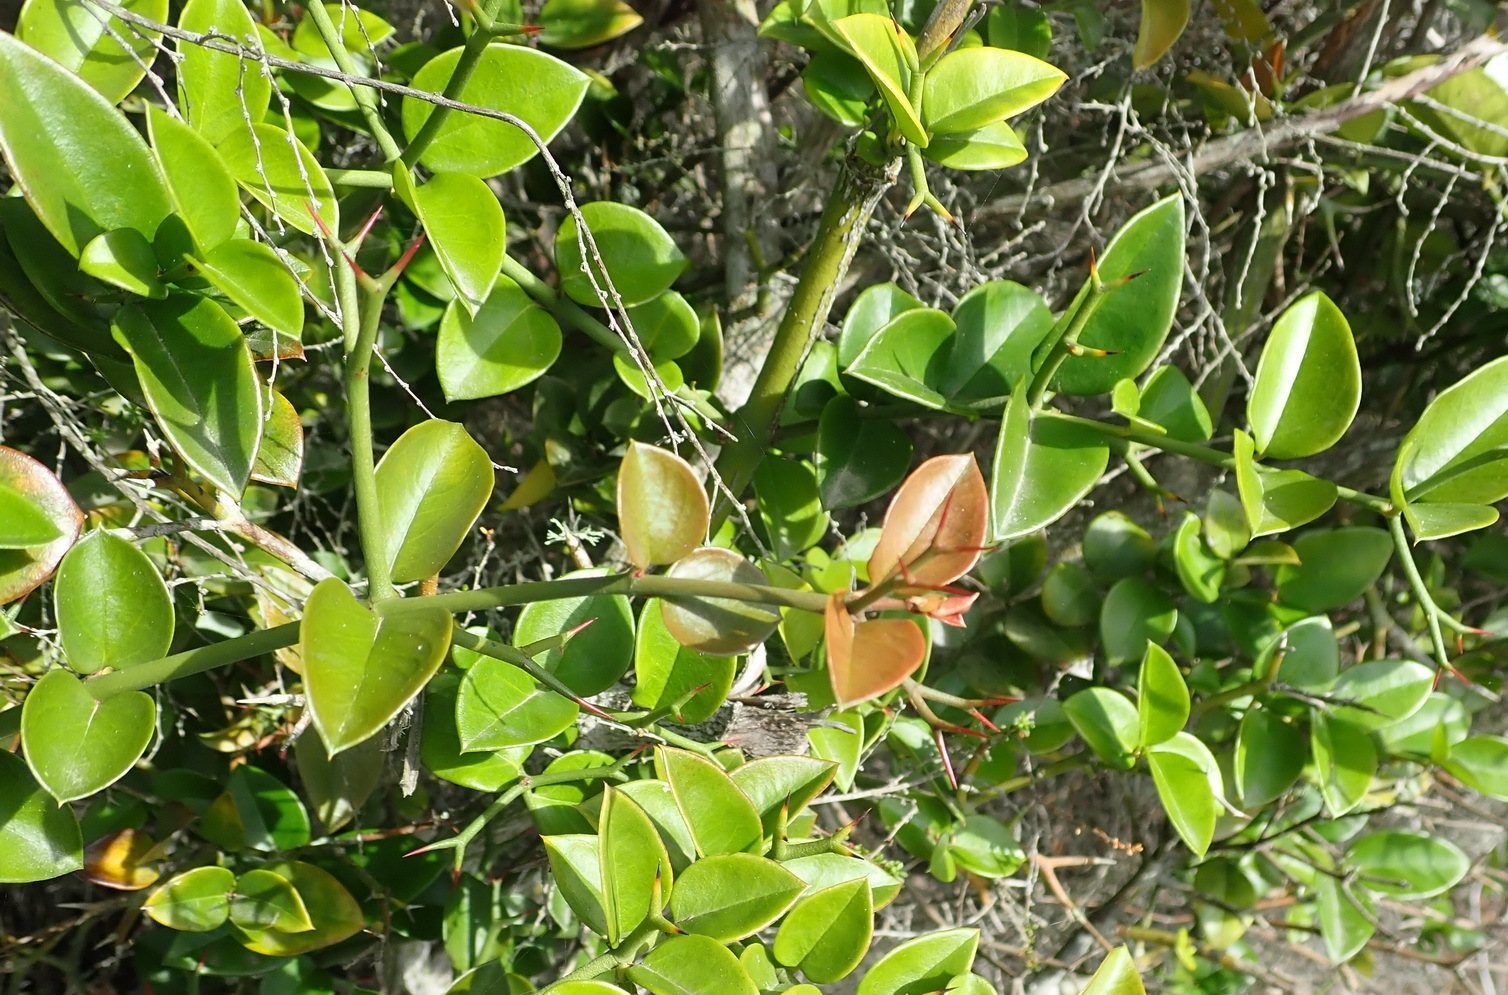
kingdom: Plantae
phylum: Tracheophyta
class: Magnoliopsida
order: Gentianales
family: Apocynaceae
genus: Carissa
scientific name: Carissa bispinosa
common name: Forest num-num
